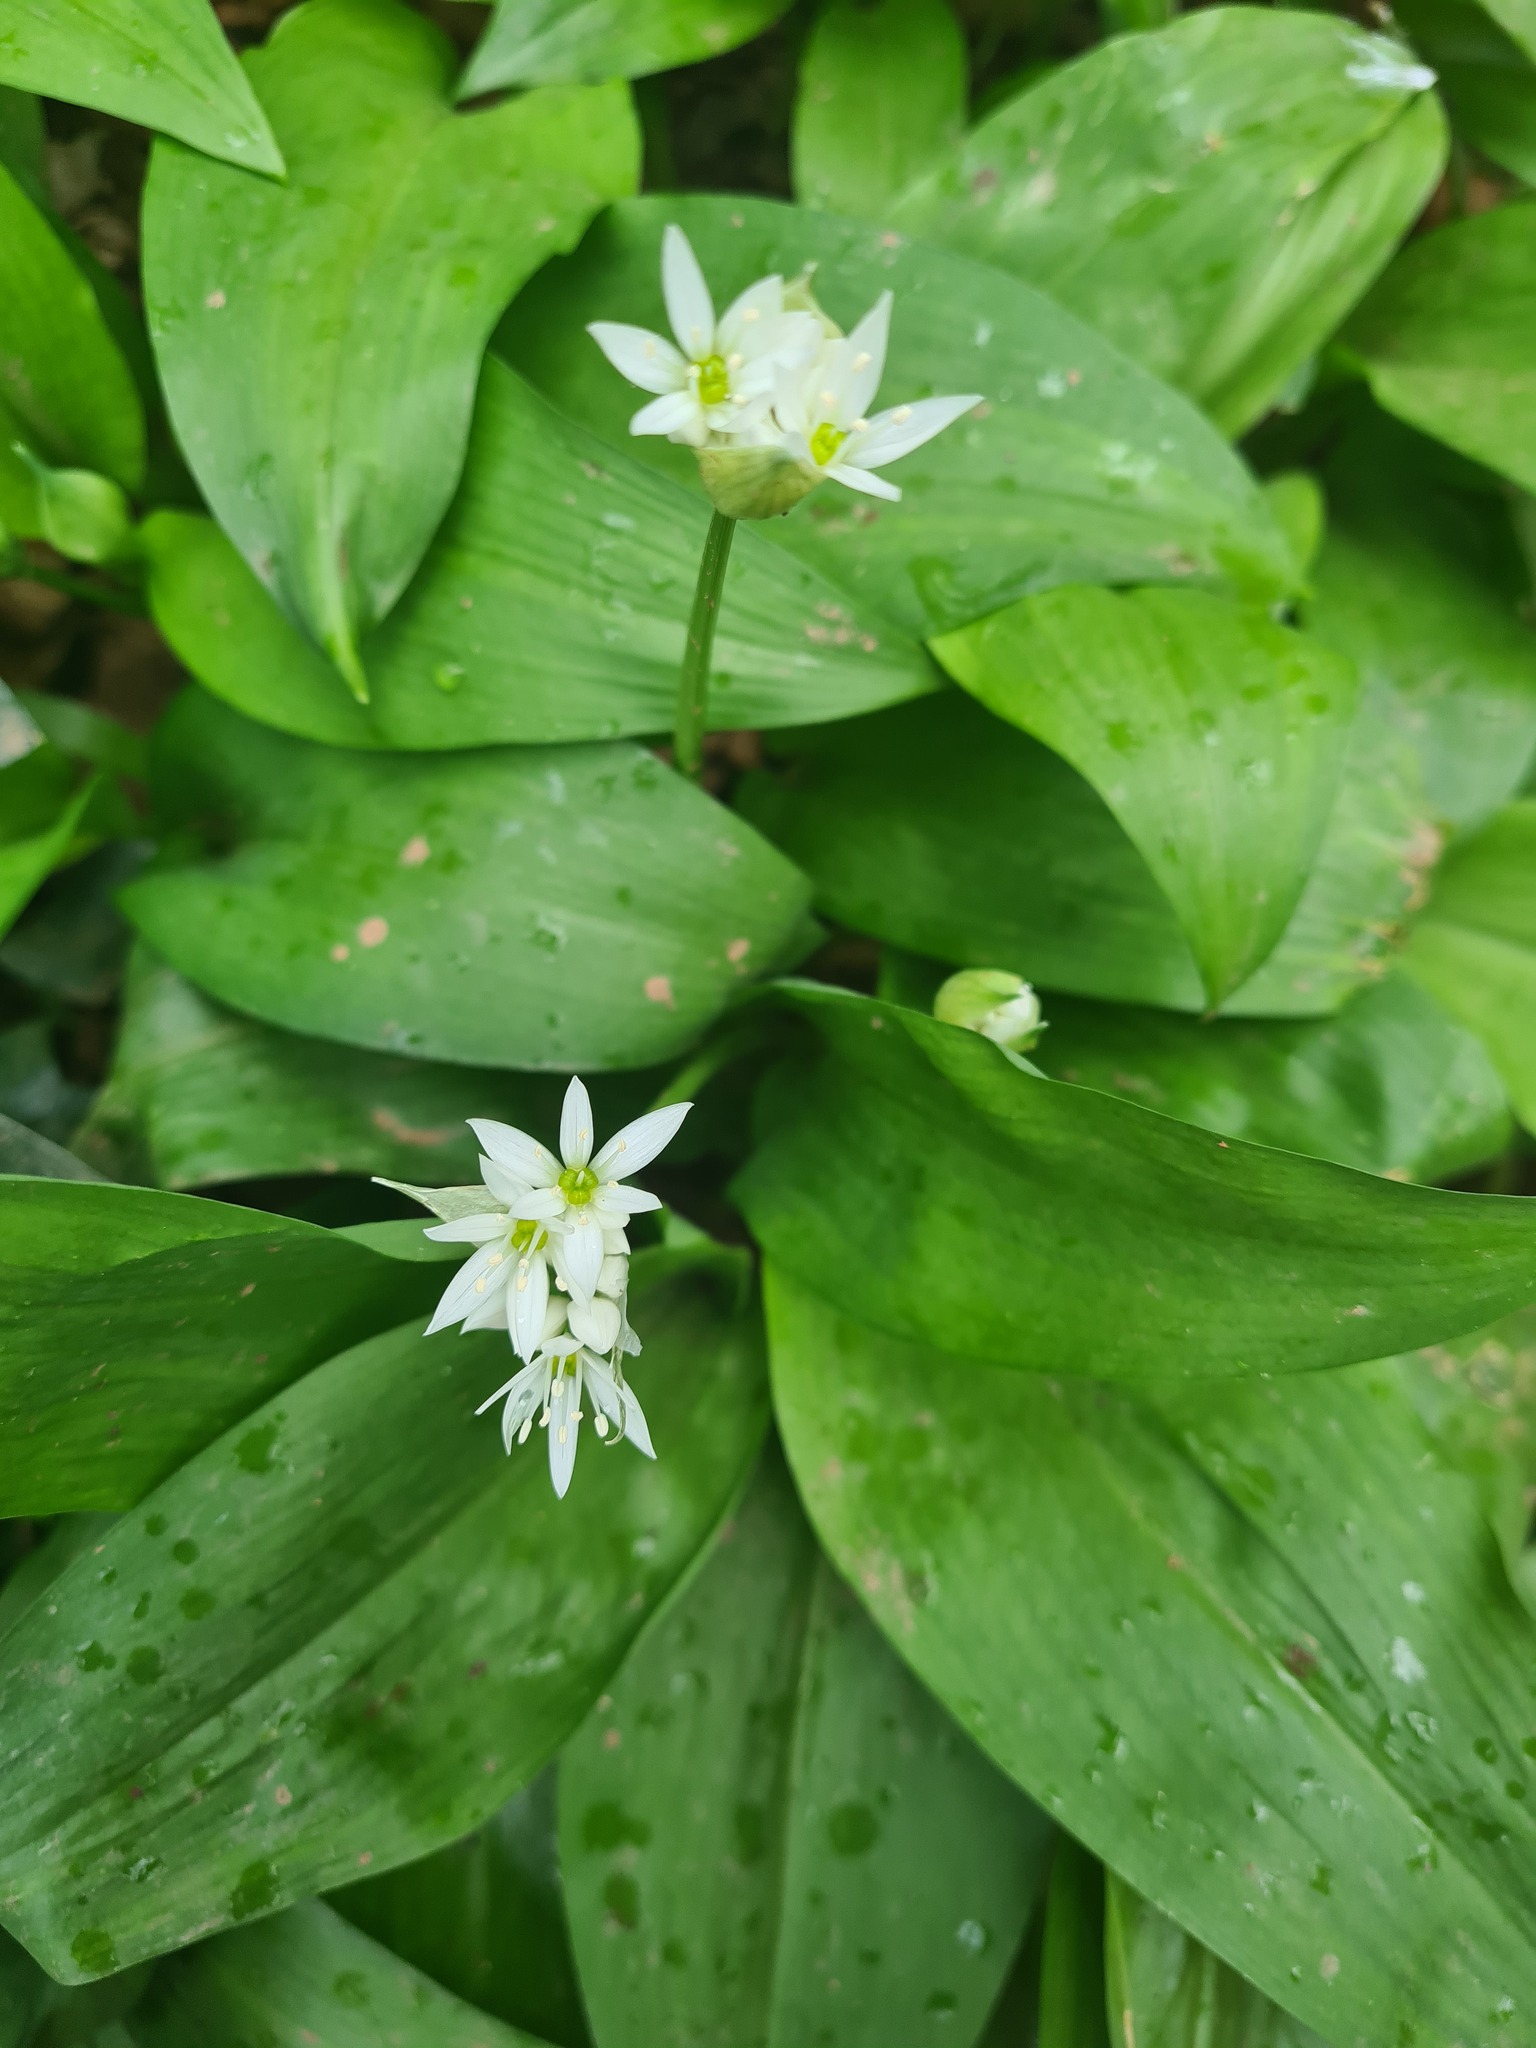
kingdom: Plantae
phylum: Tracheophyta
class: Liliopsida
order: Asparagales
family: Amaryllidaceae
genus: Allium
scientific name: Allium ursinum
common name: Ramsons
